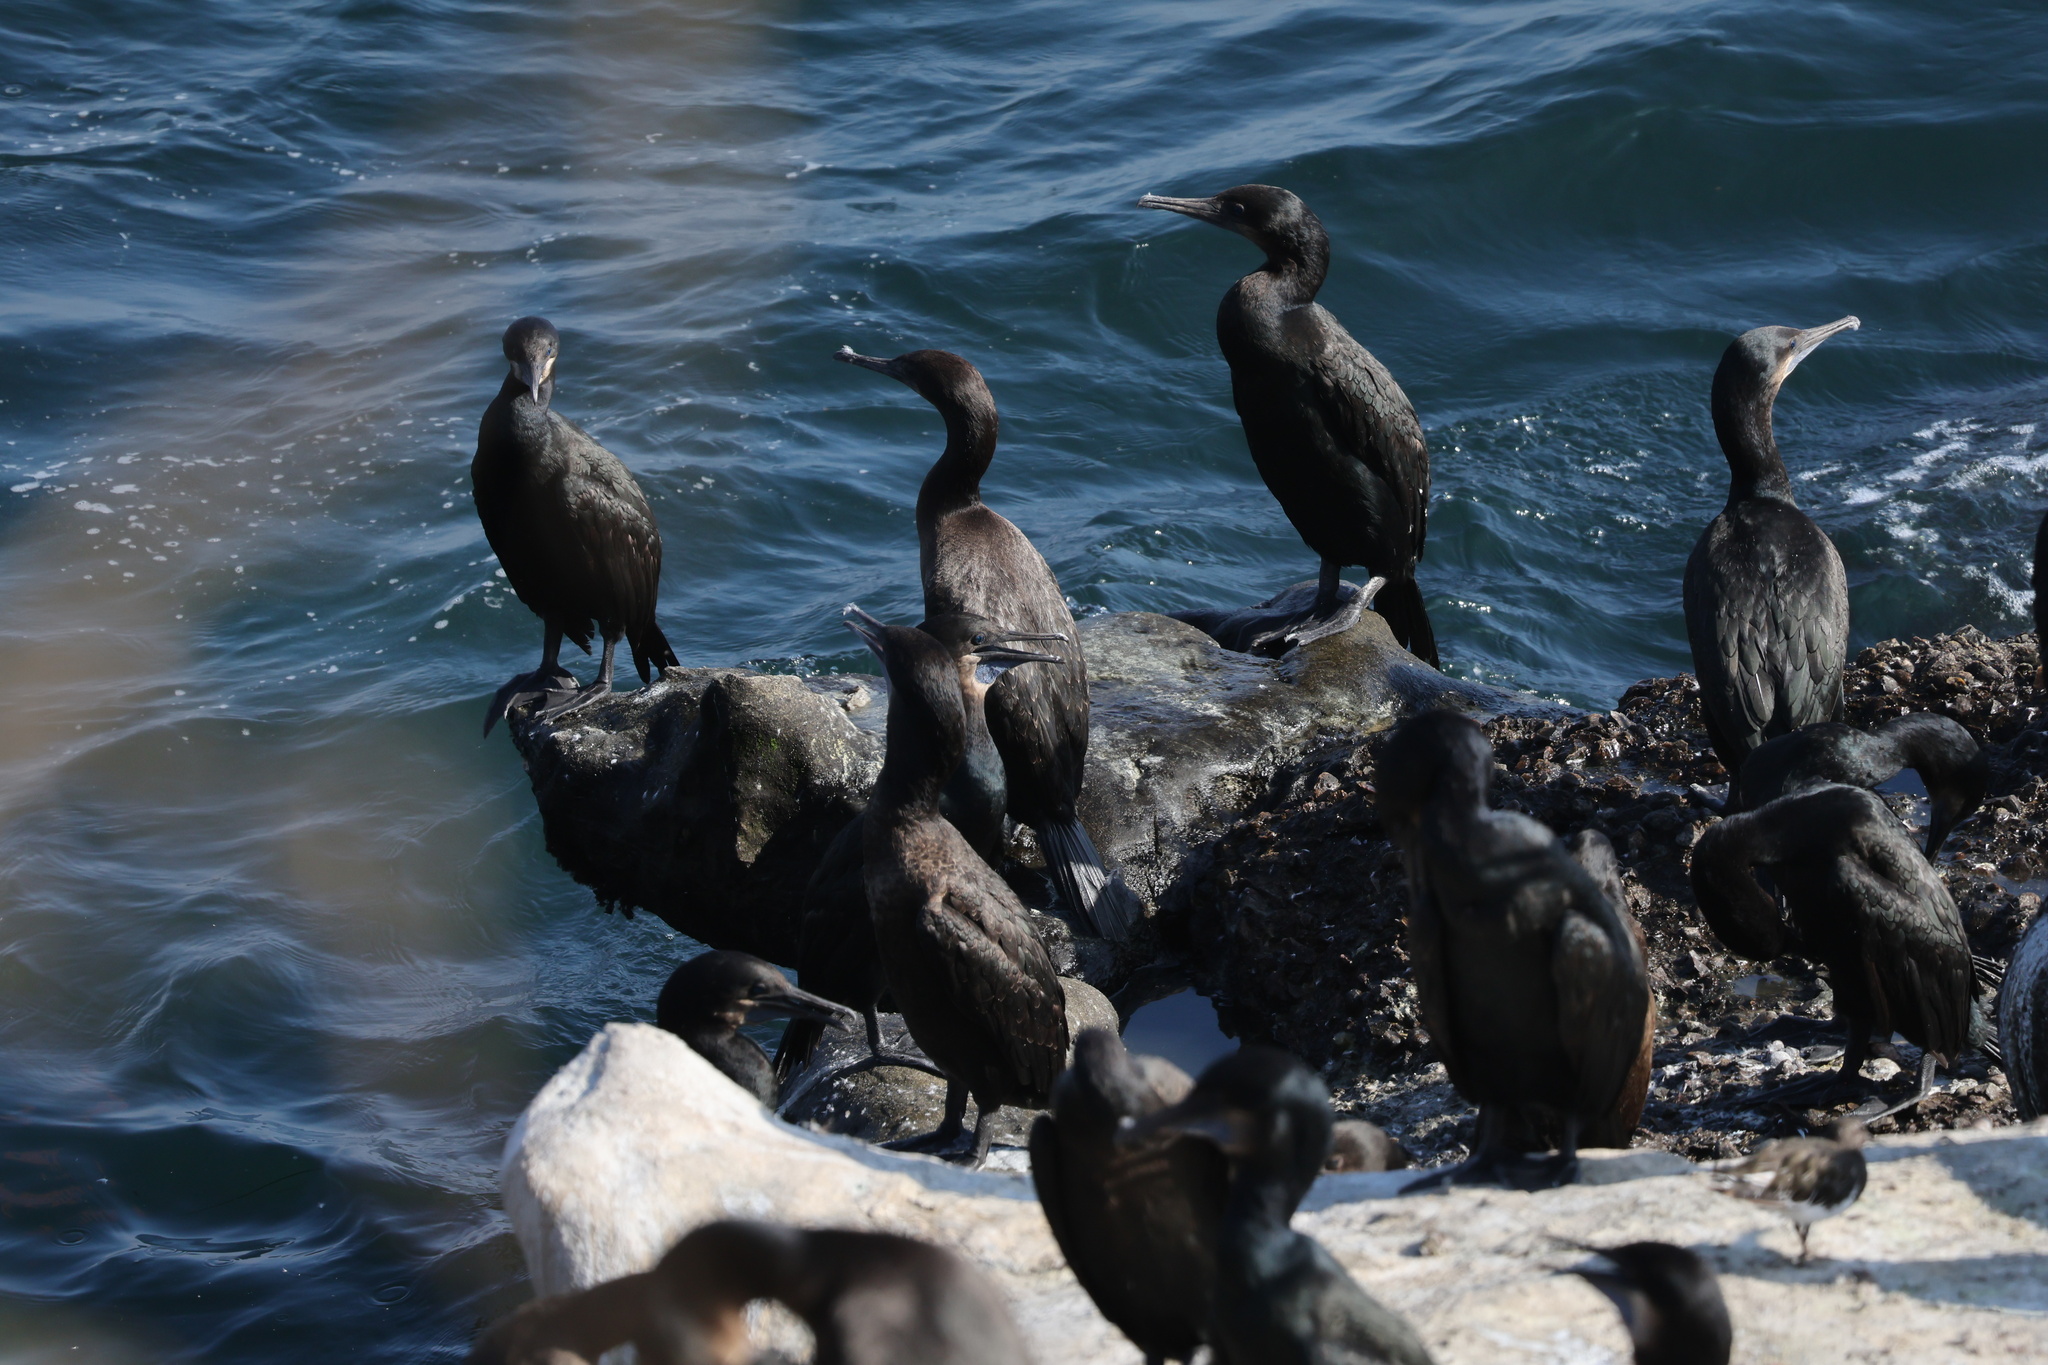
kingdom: Animalia
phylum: Chordata
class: Aves
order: Suliformes
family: Phalacrocoracidae
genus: Urile
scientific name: Urile penicillatus
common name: Brandt's cormorant
